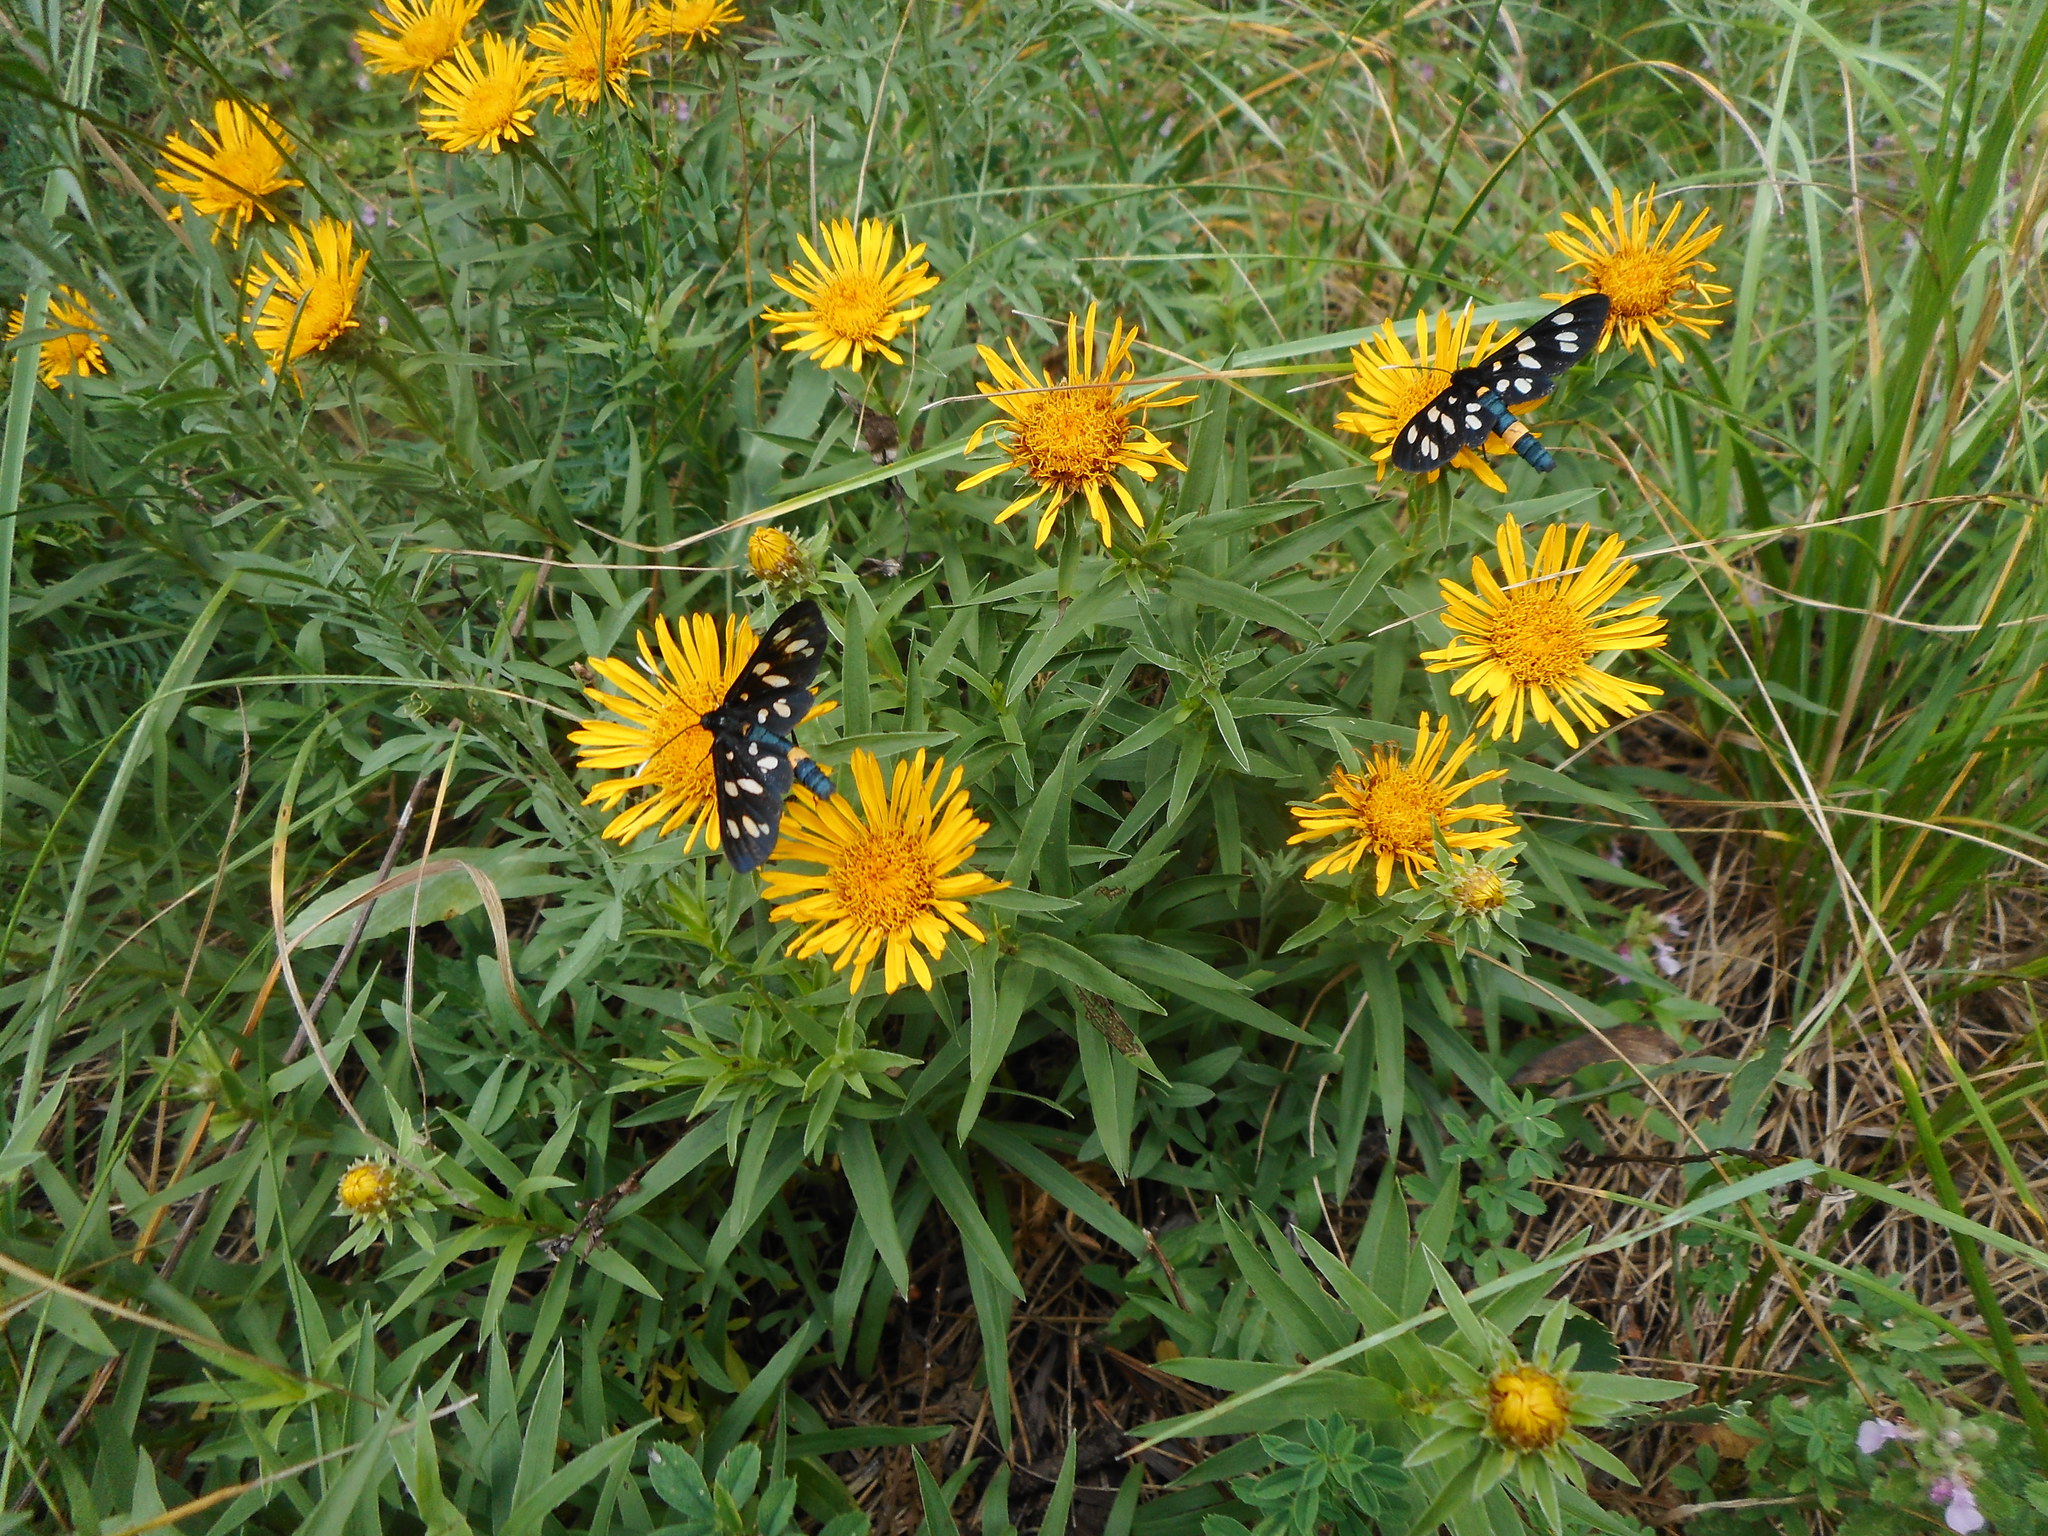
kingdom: Animalia
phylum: Arthropoda
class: Insecta
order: Lepidoptera
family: Erebidae
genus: Amata
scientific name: Amata phegea
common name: Nine-spotted
